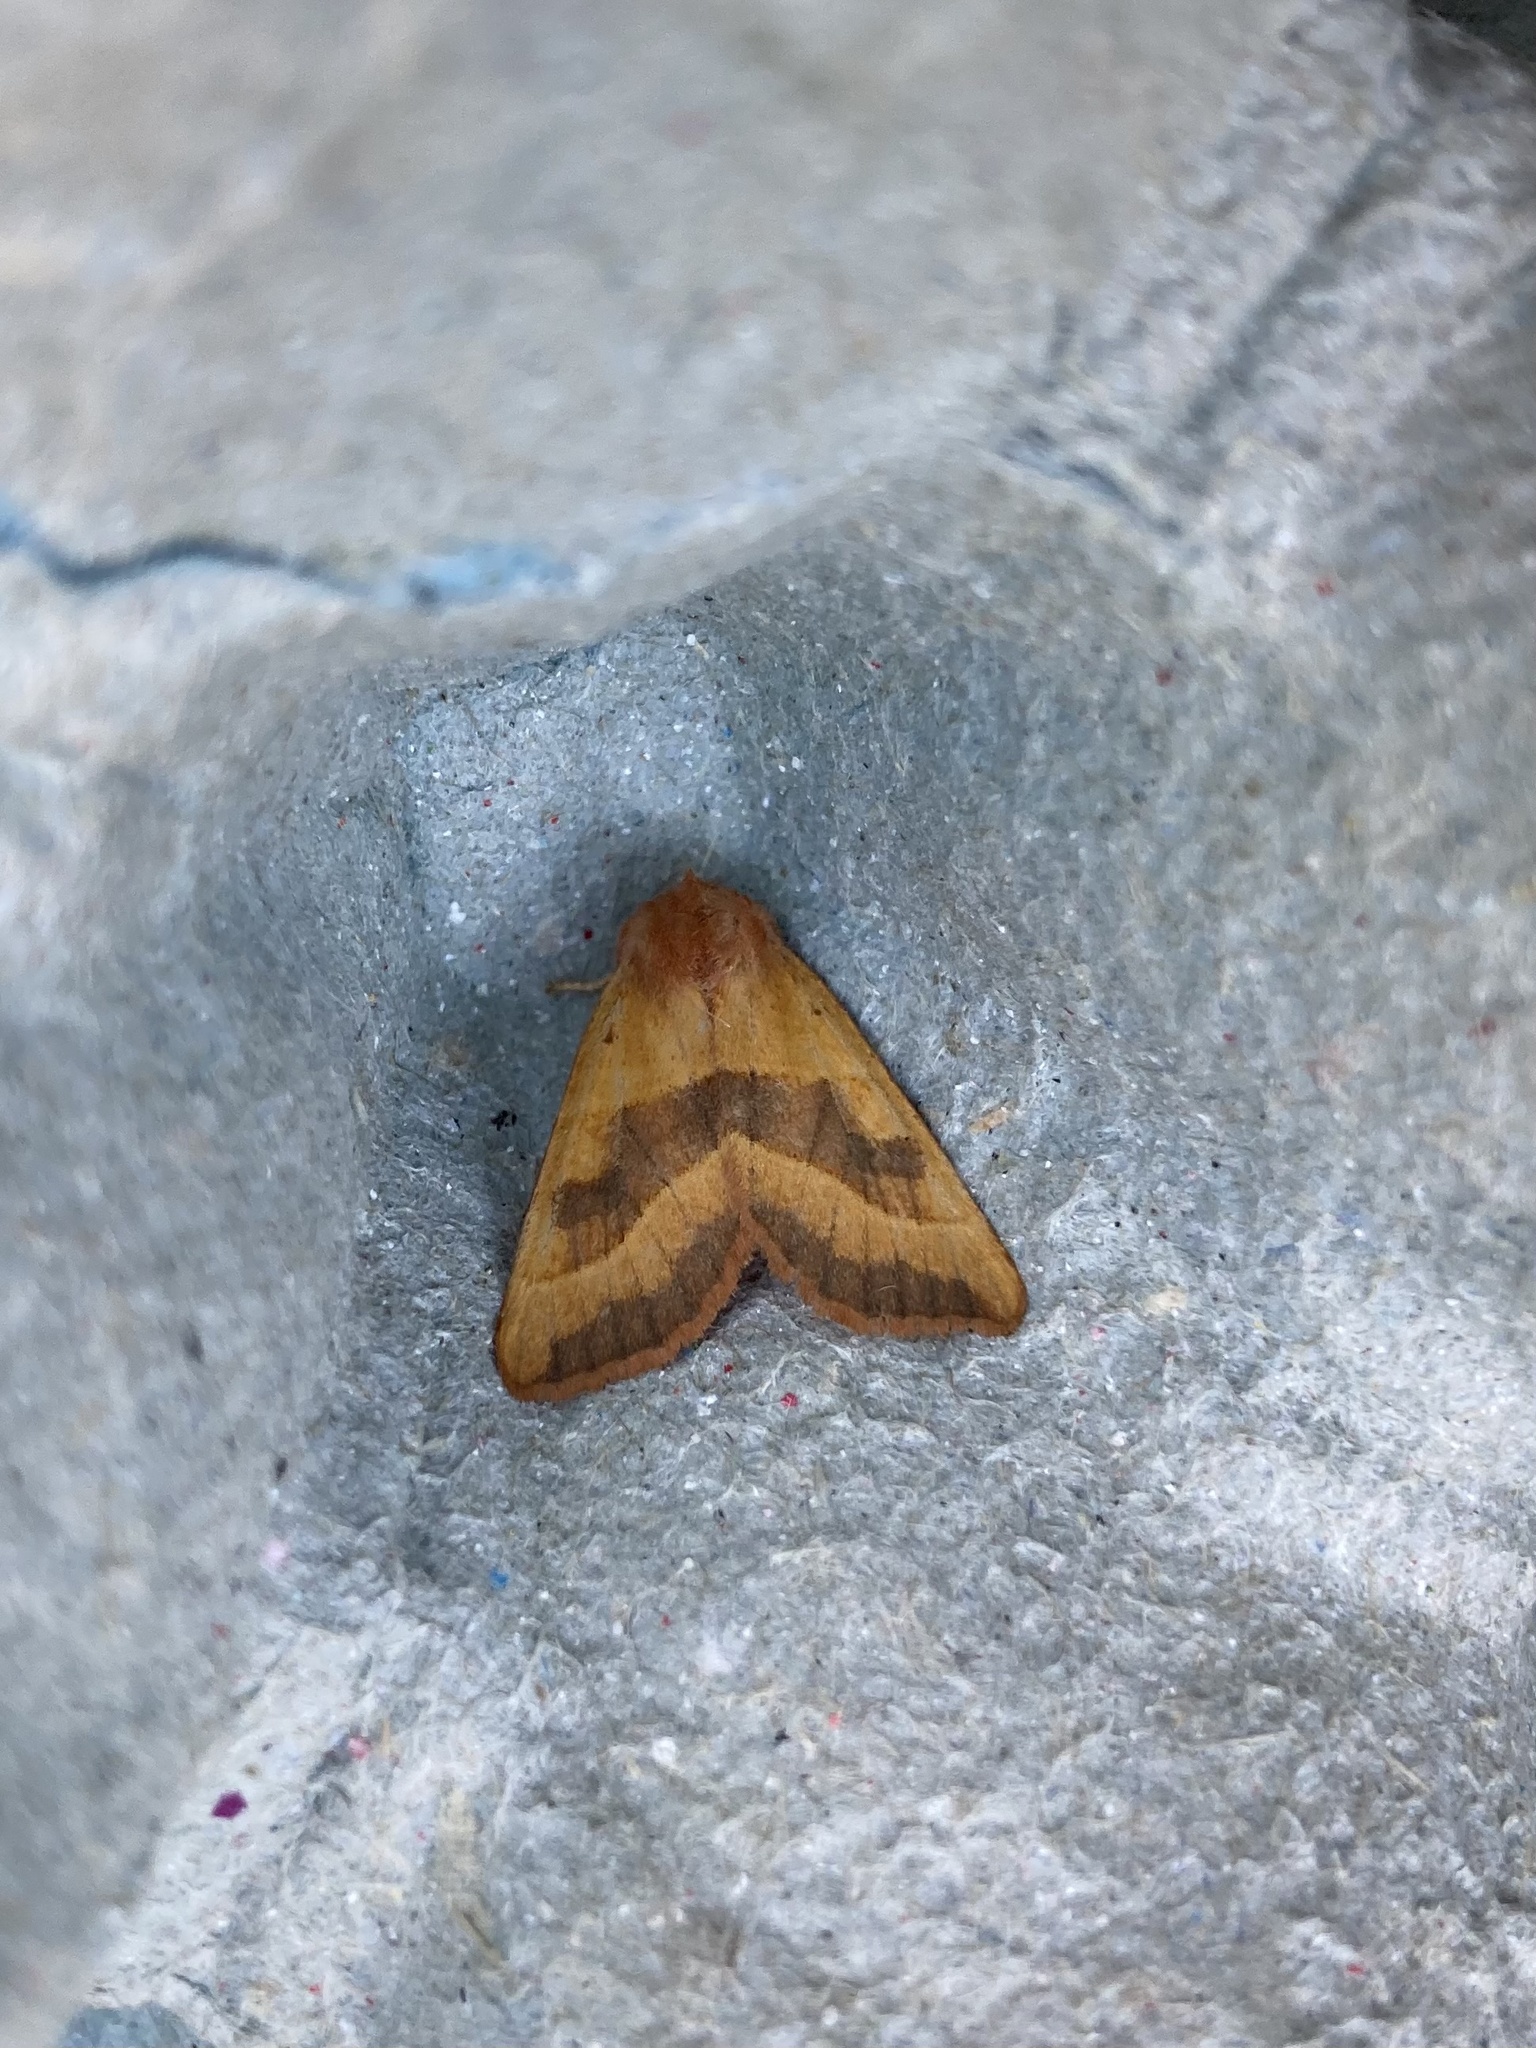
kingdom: Animalia
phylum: Arthropoda
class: Insecta
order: Lepidoptera
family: Noctuidae
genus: Atethmia
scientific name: Atethmia centrago
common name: Centre-barred sallow
